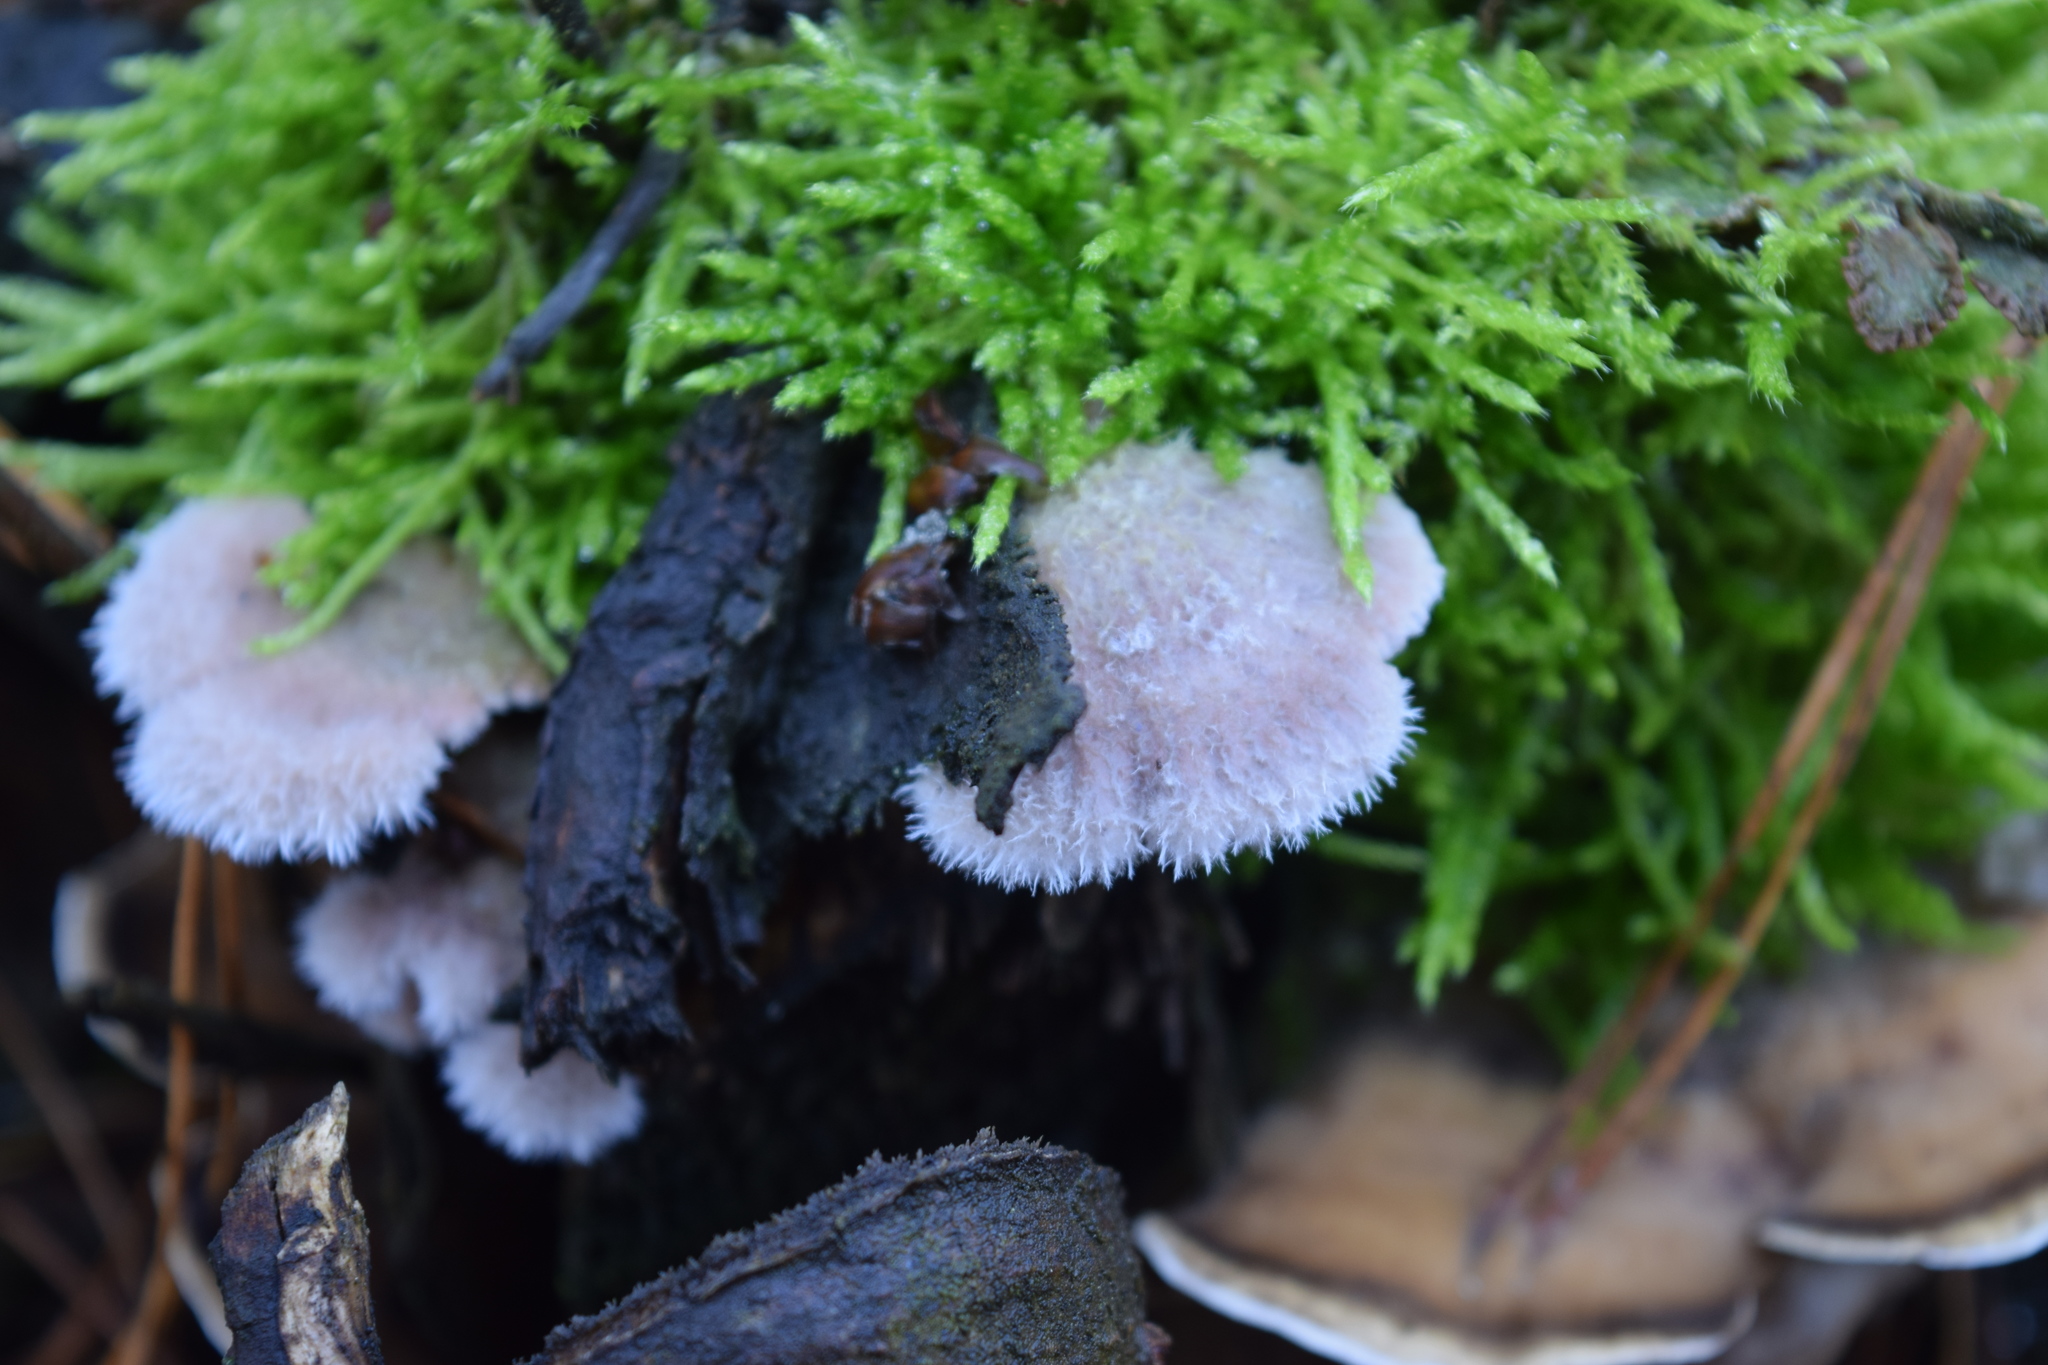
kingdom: Fungi
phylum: Basidiomycota
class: Agaricomycetes
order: Polyporales
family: Irpicaceae
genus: Leptoporus
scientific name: Leptoporus mollis
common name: Soft bracket
